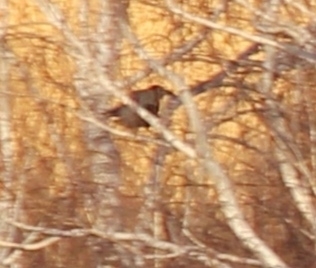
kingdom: Animalia
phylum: Chordata
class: Aves
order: Passeriformes
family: Corvidae
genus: Corvus
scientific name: Corvus cornix
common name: Hooded crow
